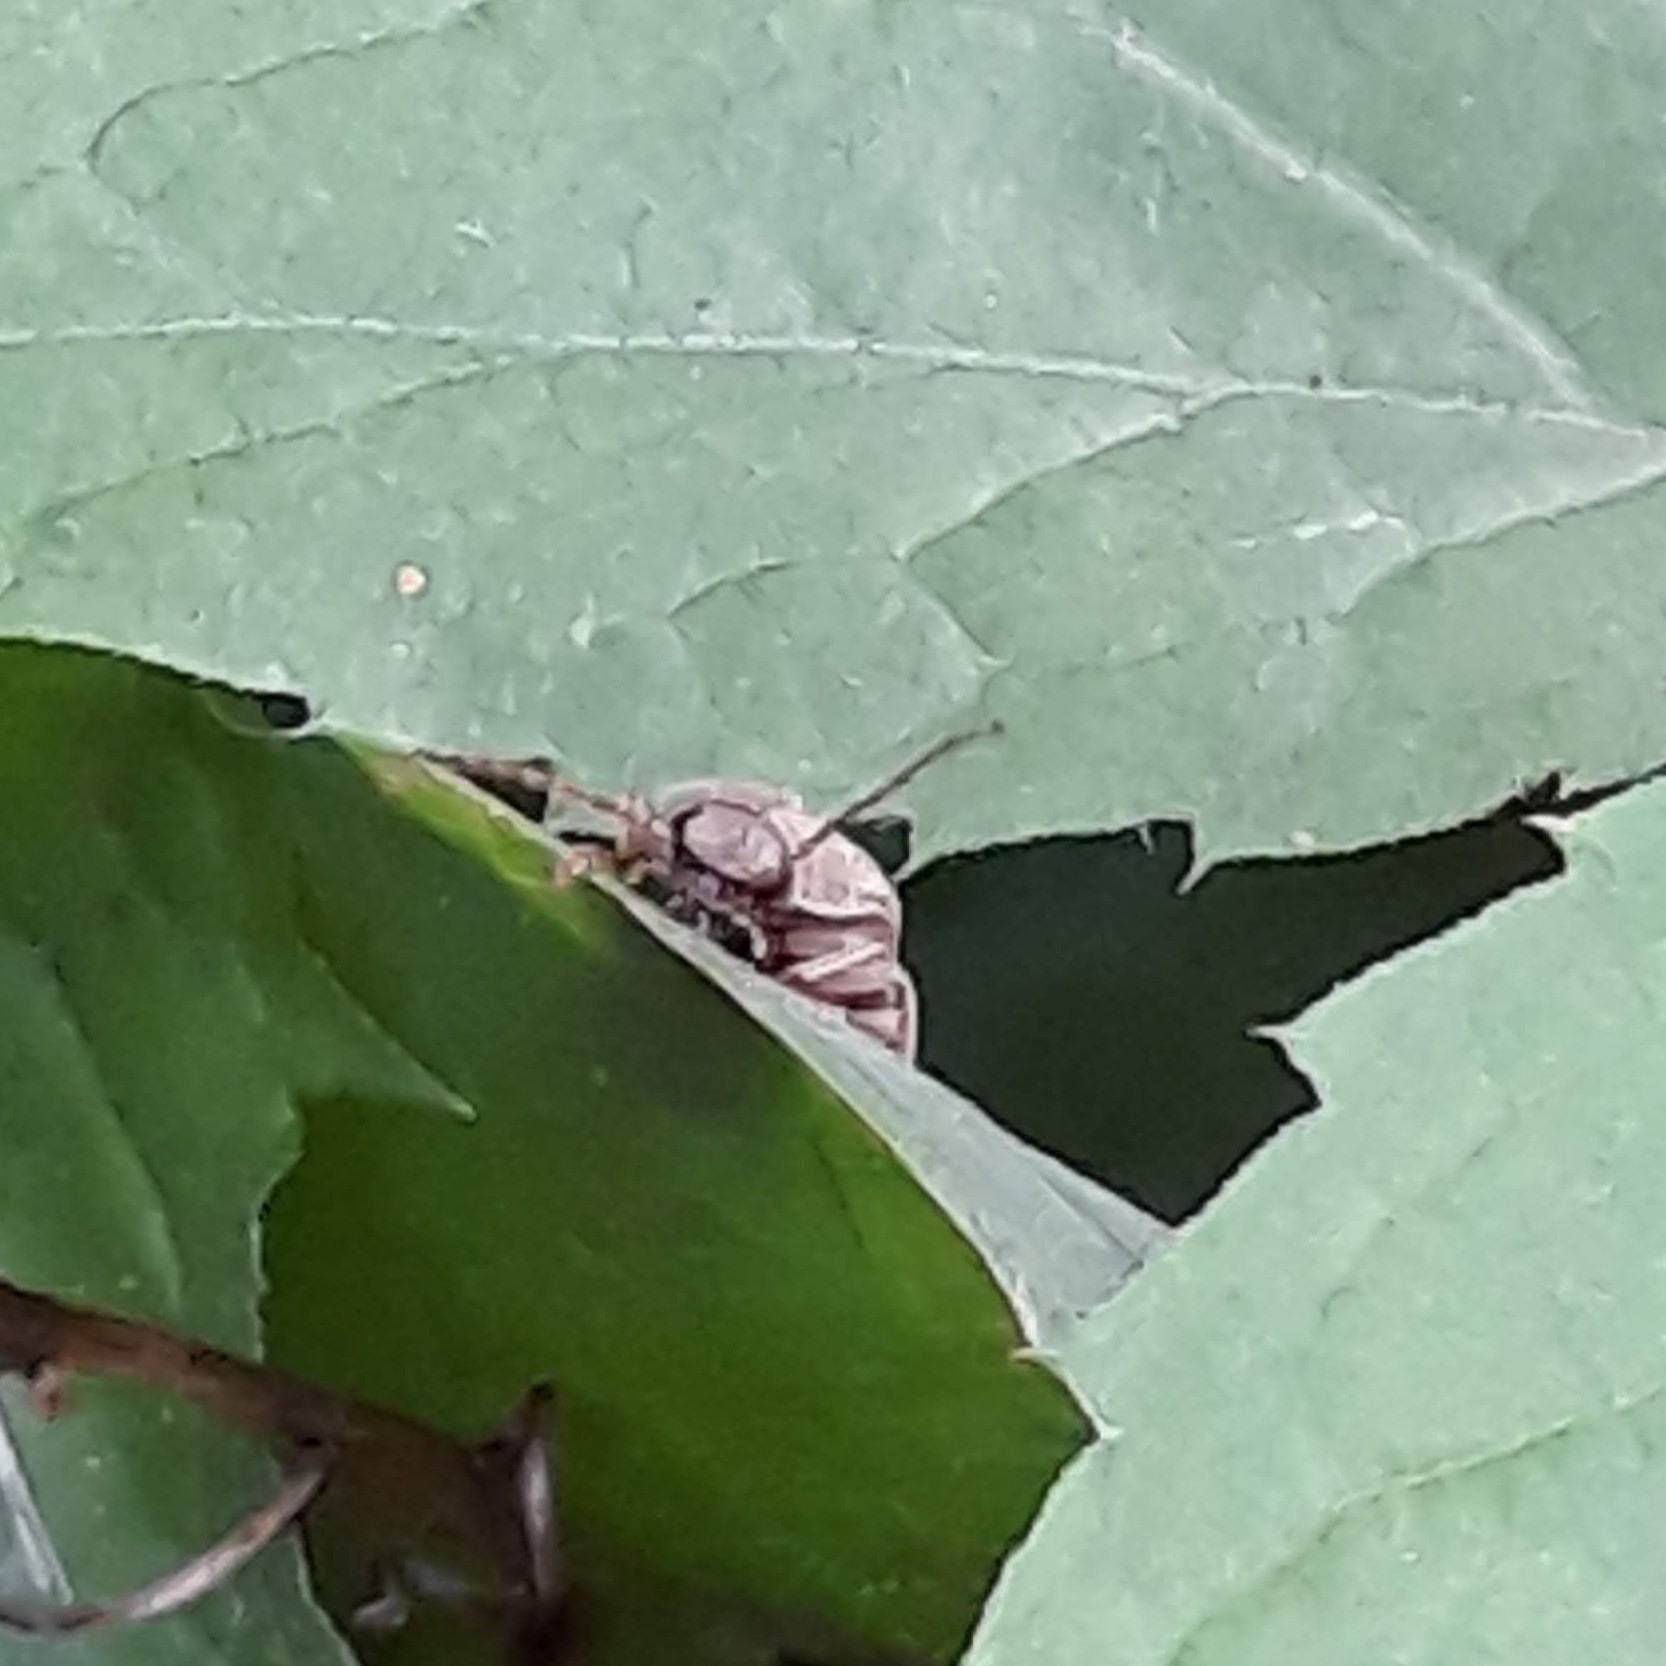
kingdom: Animalia
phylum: Arthropoda
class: Insecta
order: Coleoptera
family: Elateridae
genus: Monocrepidius
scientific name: Monocrepidius lividus
